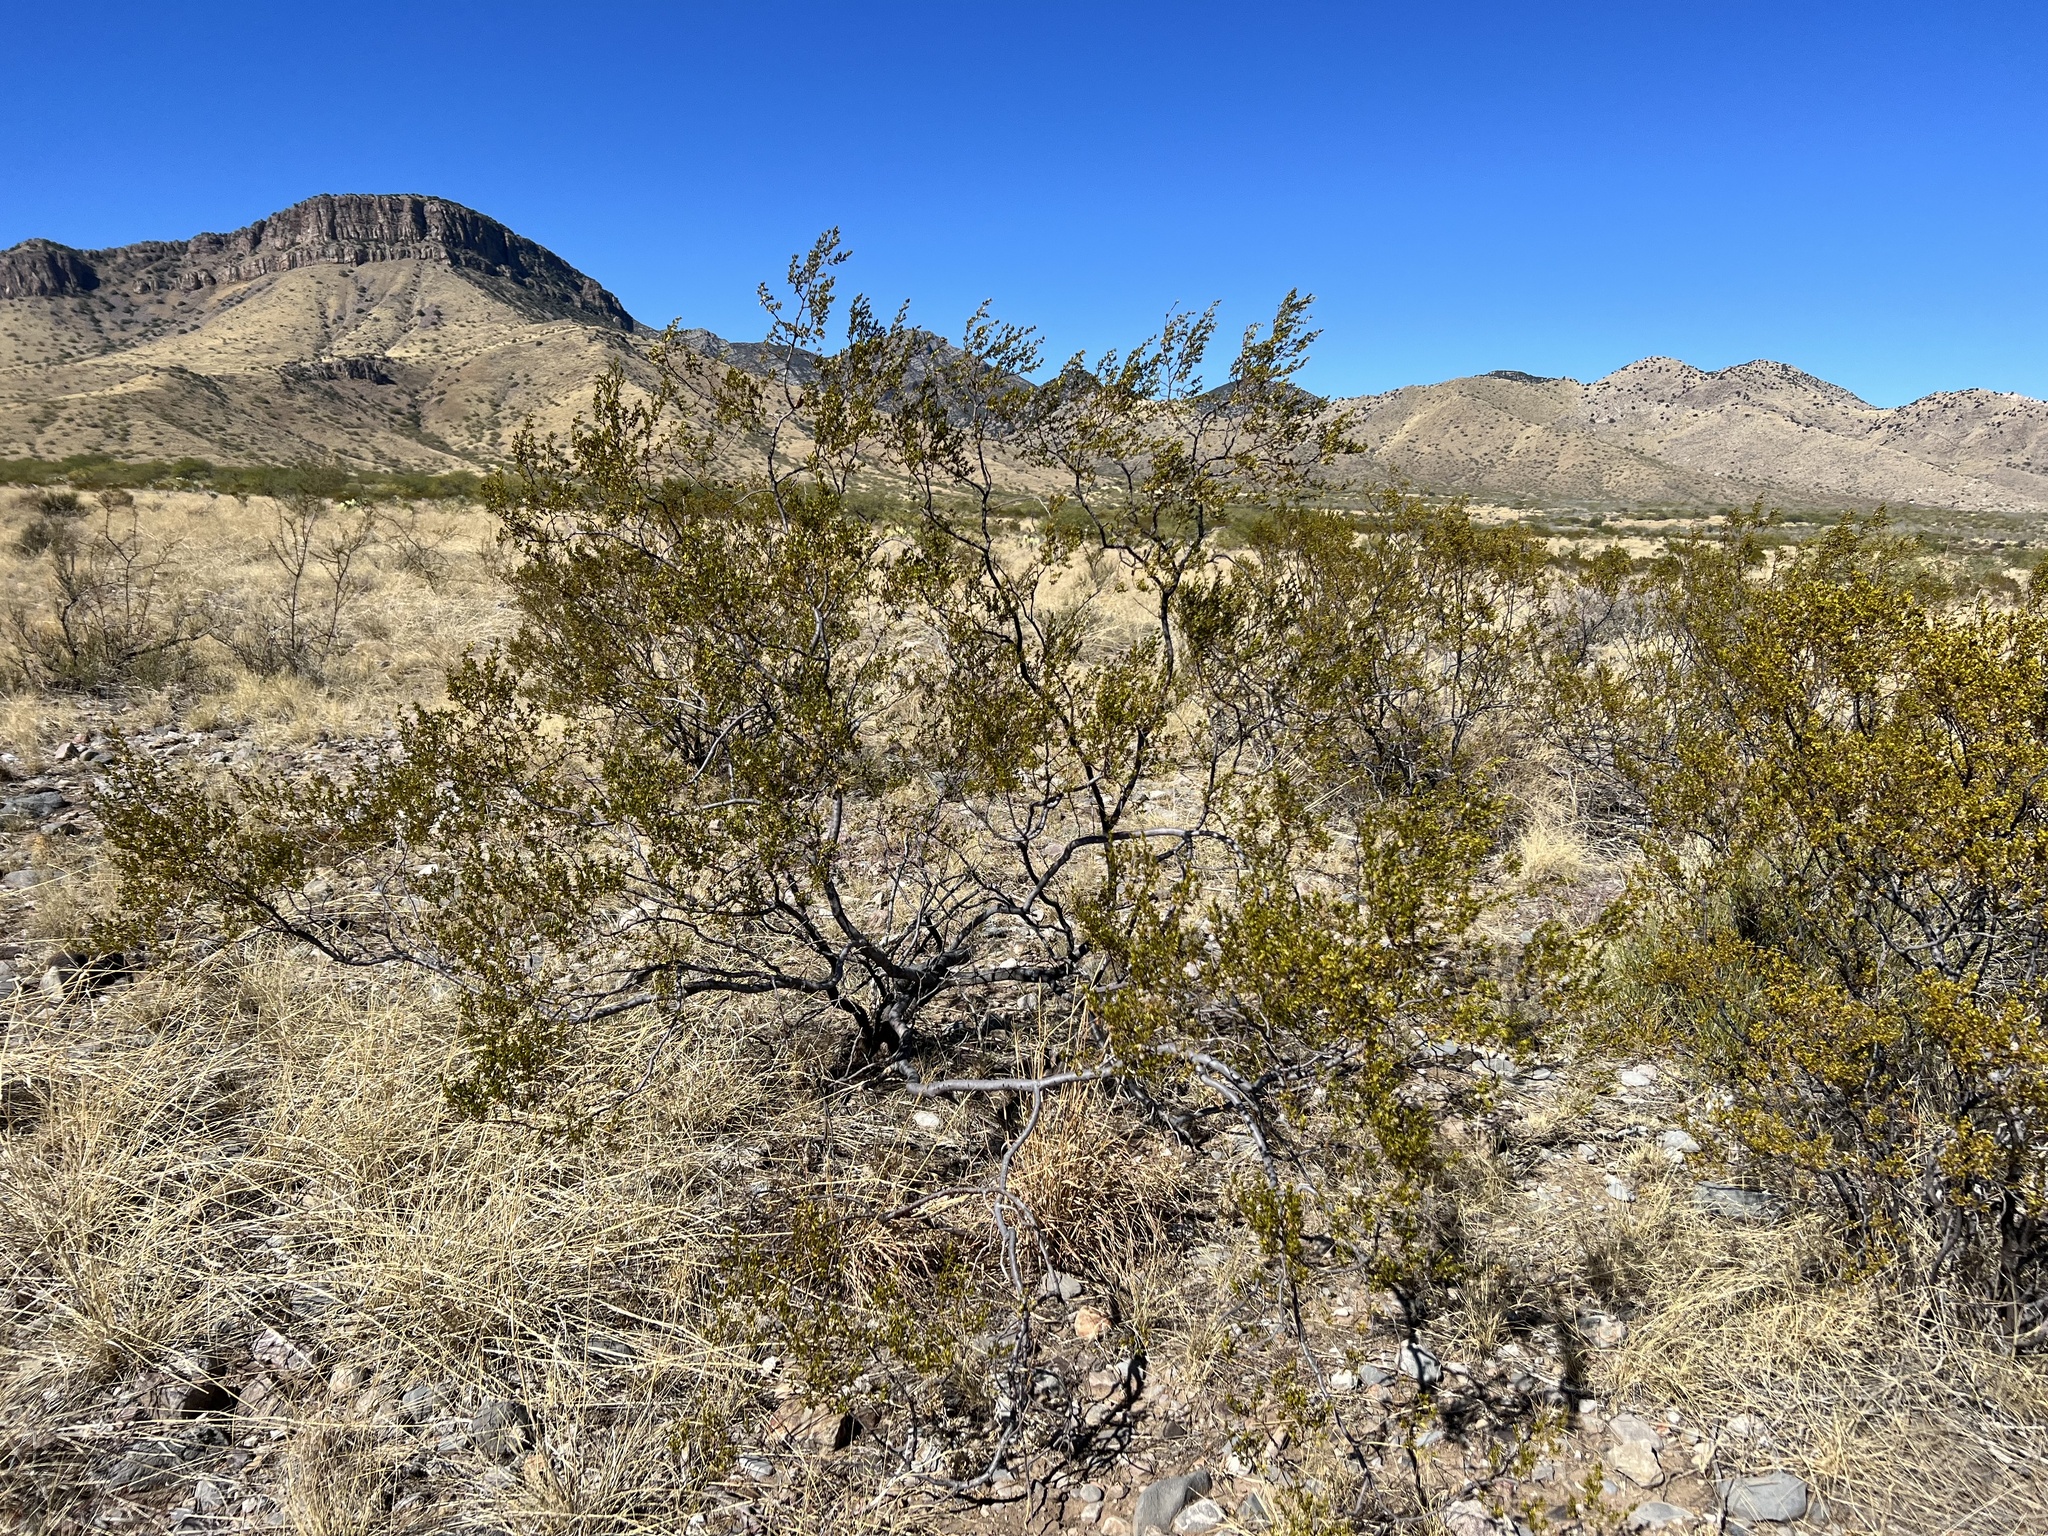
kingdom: Plantae
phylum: Tracheophyta
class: Magnoliopsida
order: Zygophyllales
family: Zygophyllaceae
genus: Larrea
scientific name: Larrea tridentata
